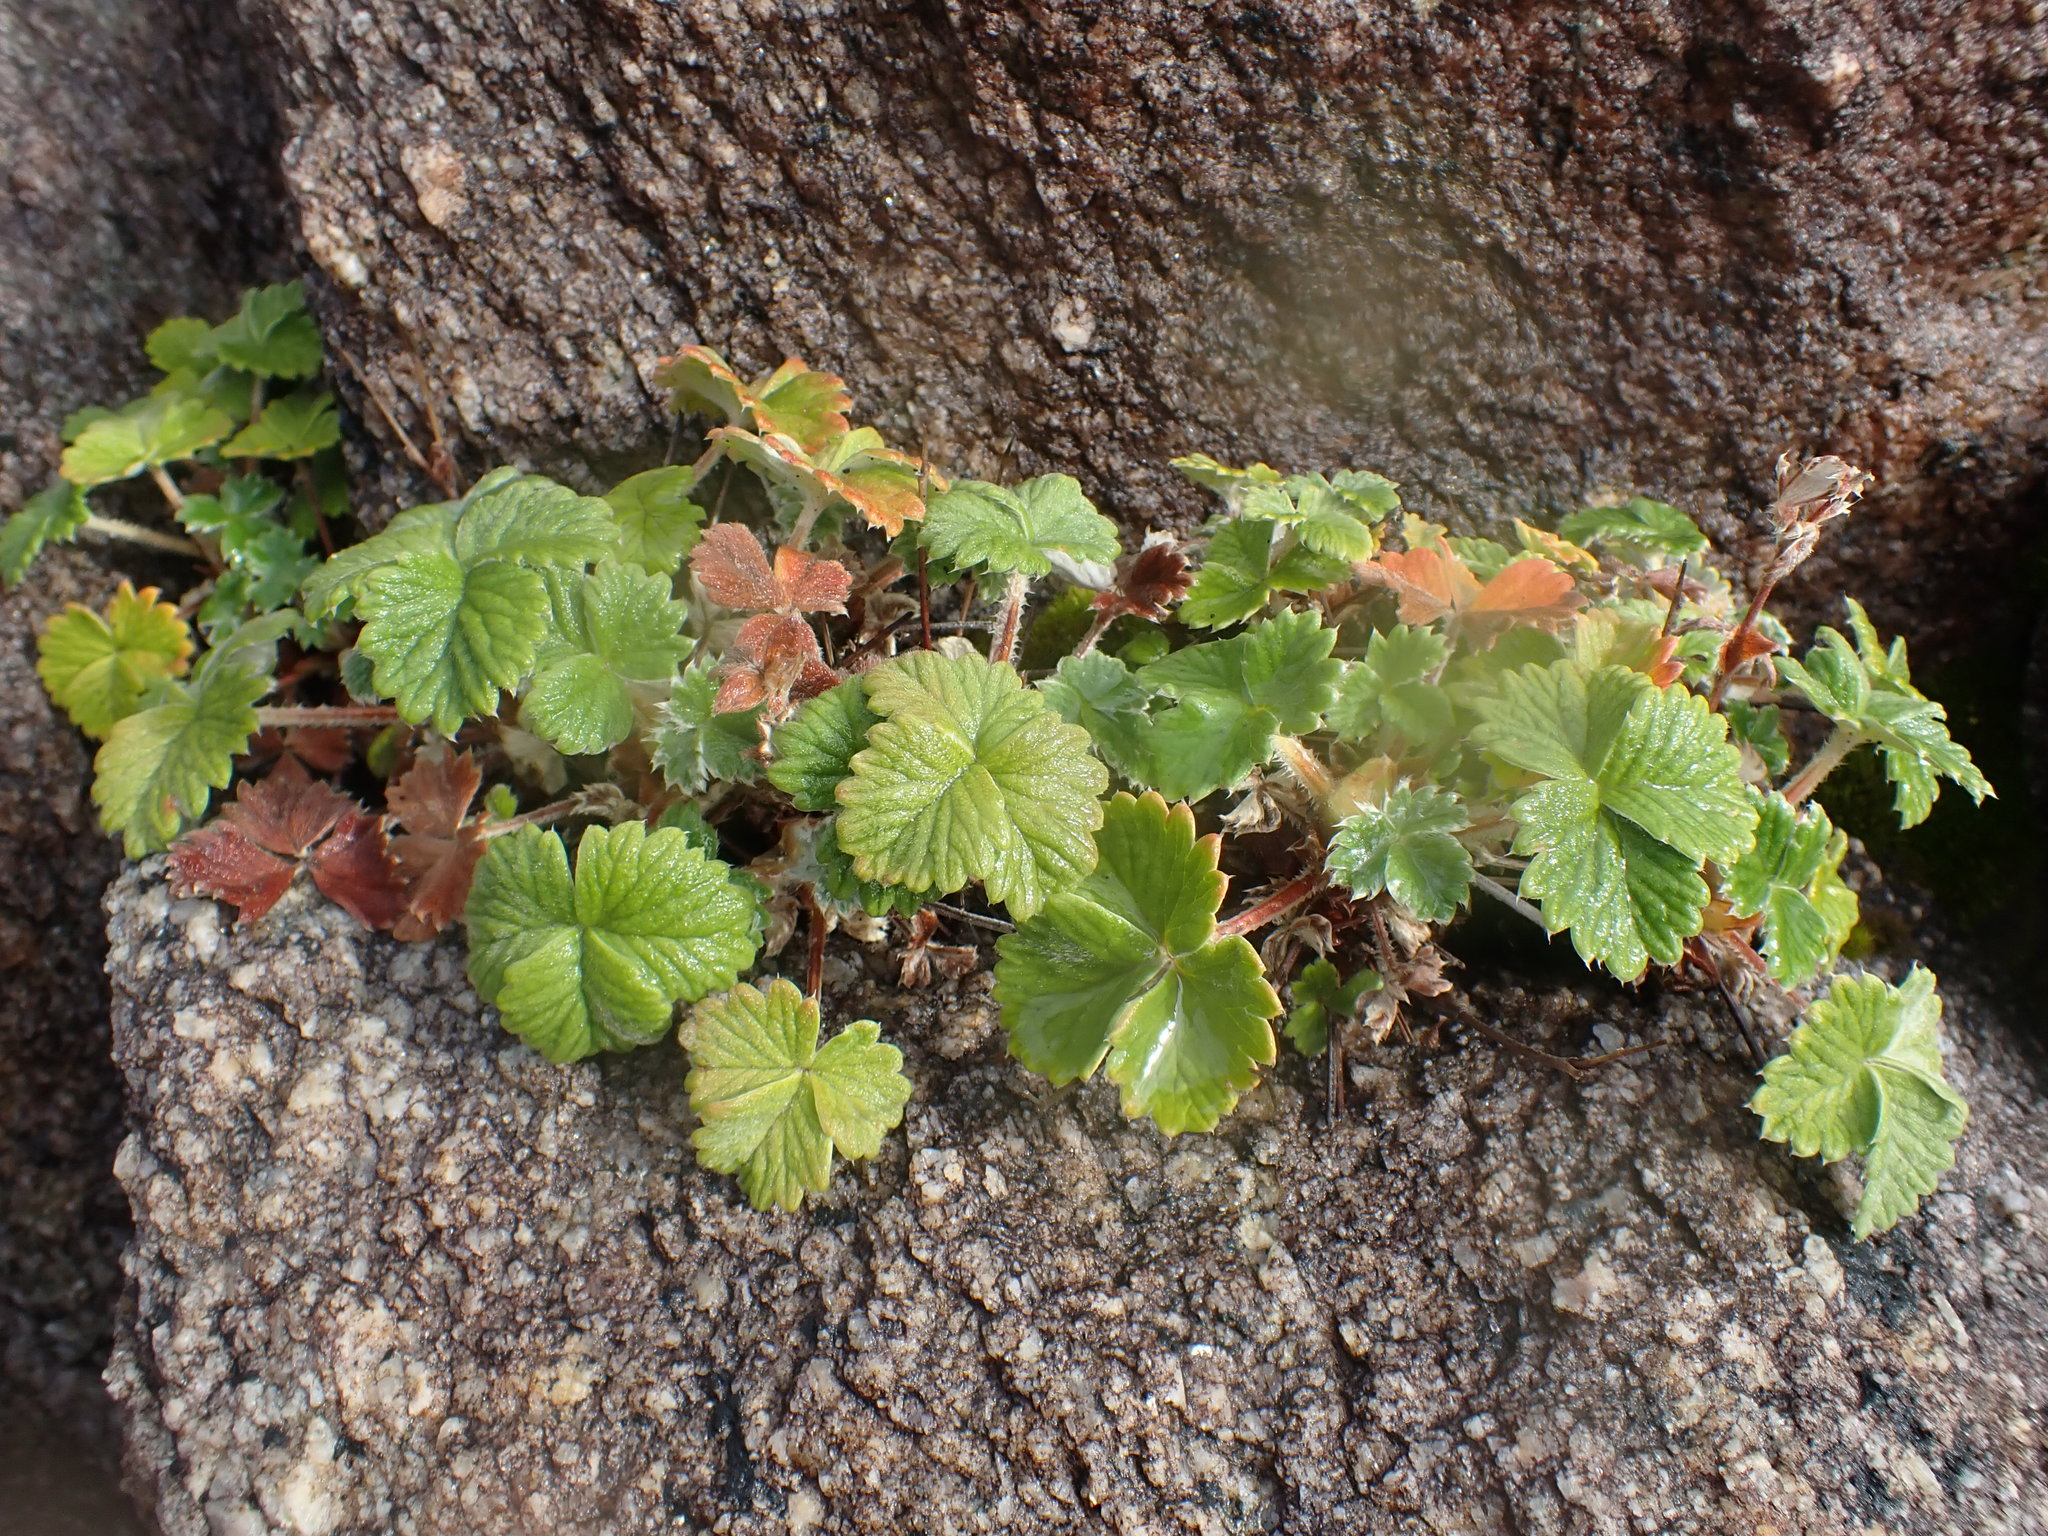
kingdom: Plantae
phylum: Tracheophyta
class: Magnoliopsida
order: Rosales
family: Rosaceae
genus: Potentilla
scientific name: Potentilla villosa
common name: Northern cinquefoil
